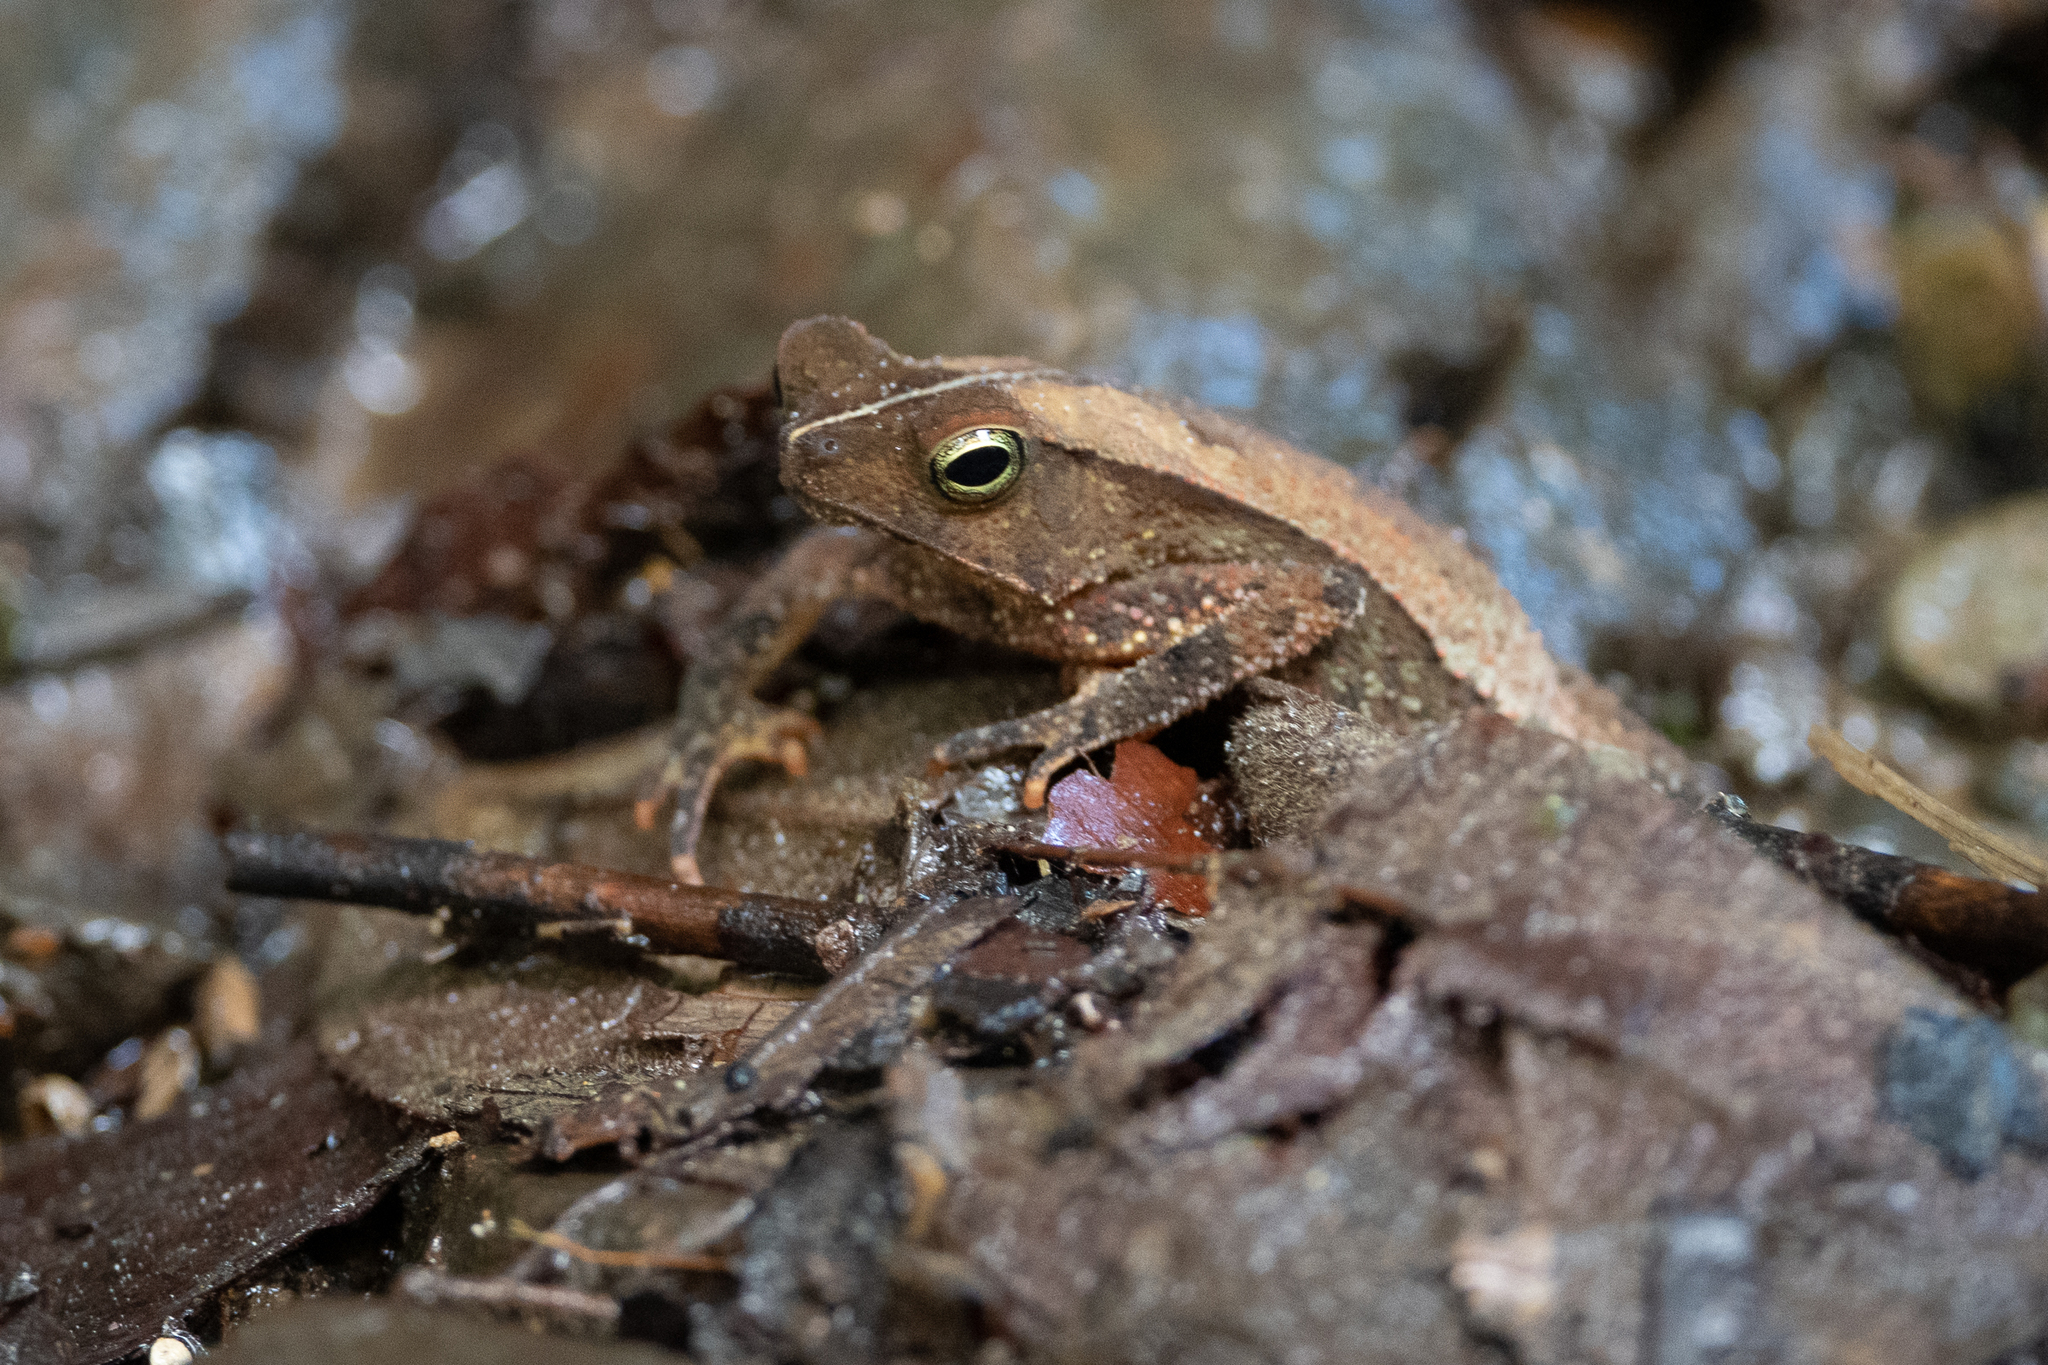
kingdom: Animalia
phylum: Chordata
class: Amphibia
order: Anura
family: Bufonidae
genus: Rhinella
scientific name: Rhinella alata
